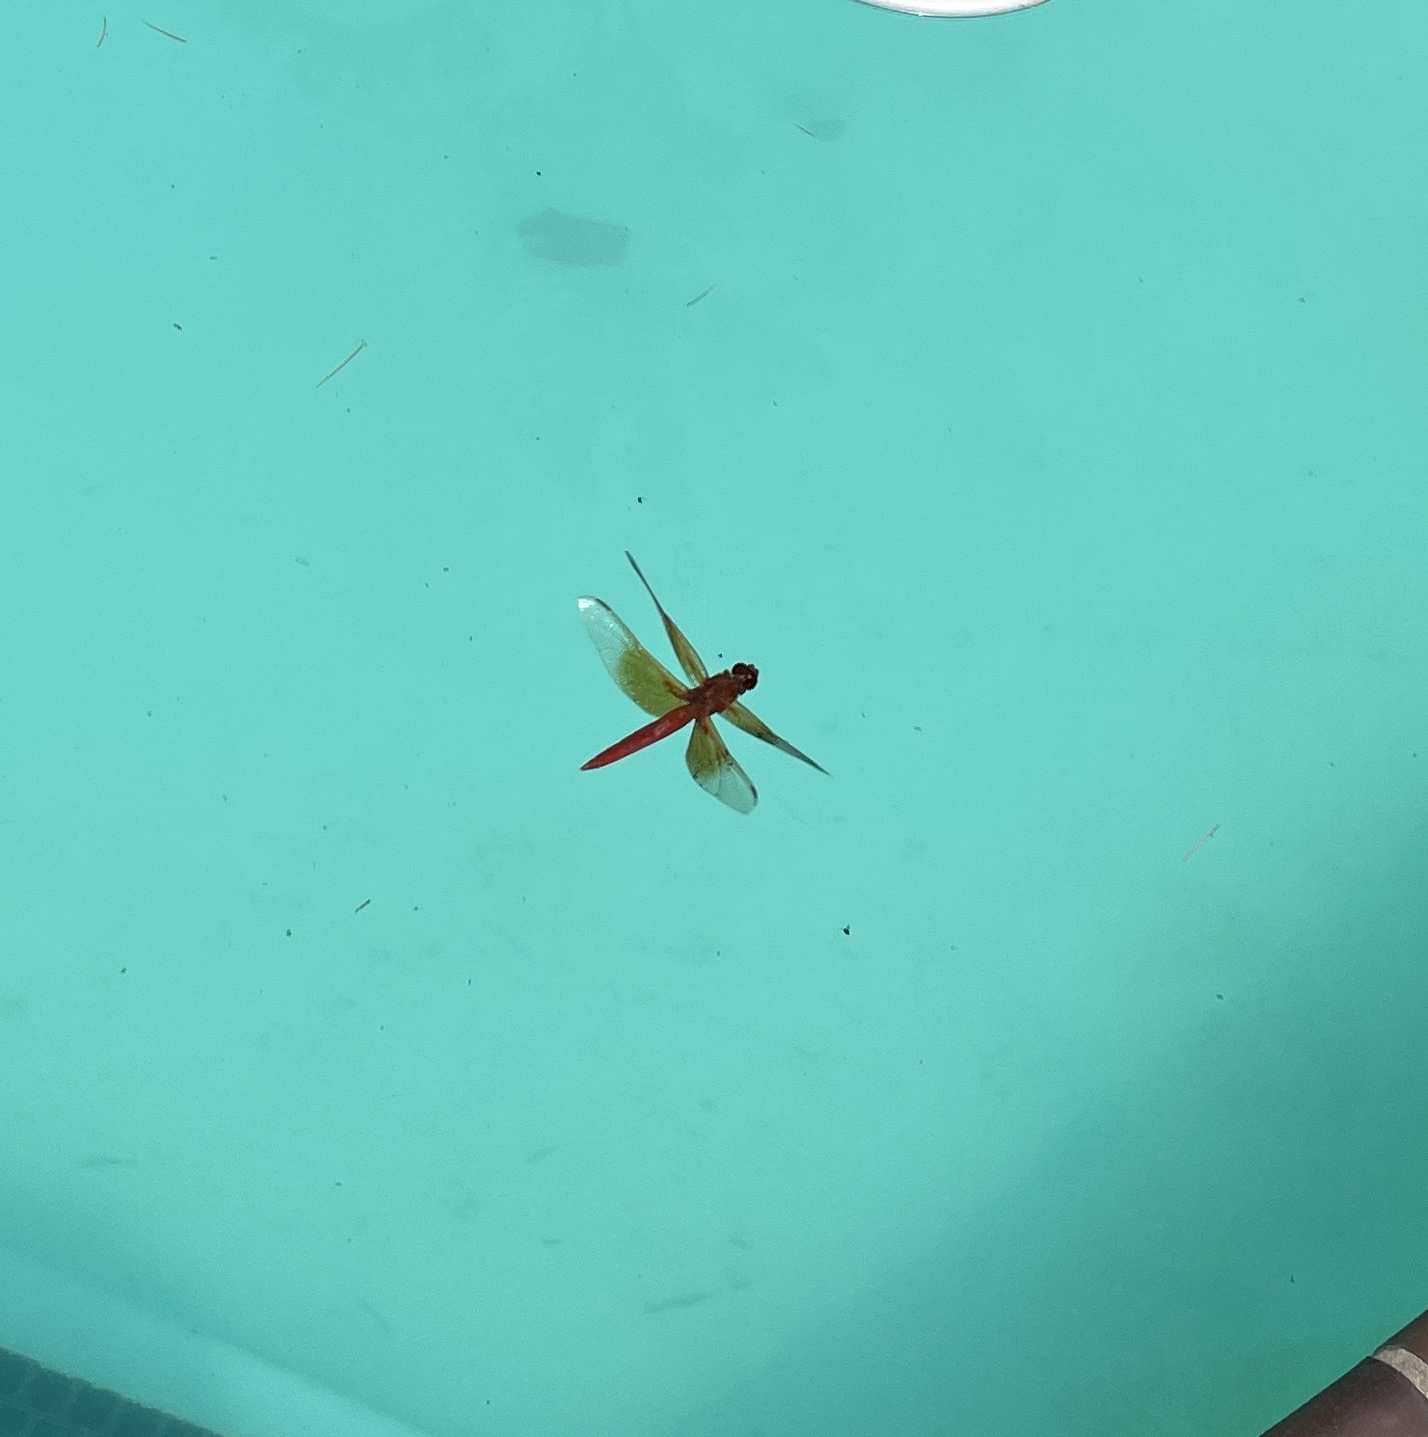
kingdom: Animalia
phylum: Arthropoda
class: Insecta
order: Odonata
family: Libellulidae
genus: Libellula
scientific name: Libellula saturata
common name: Flame skimmer
